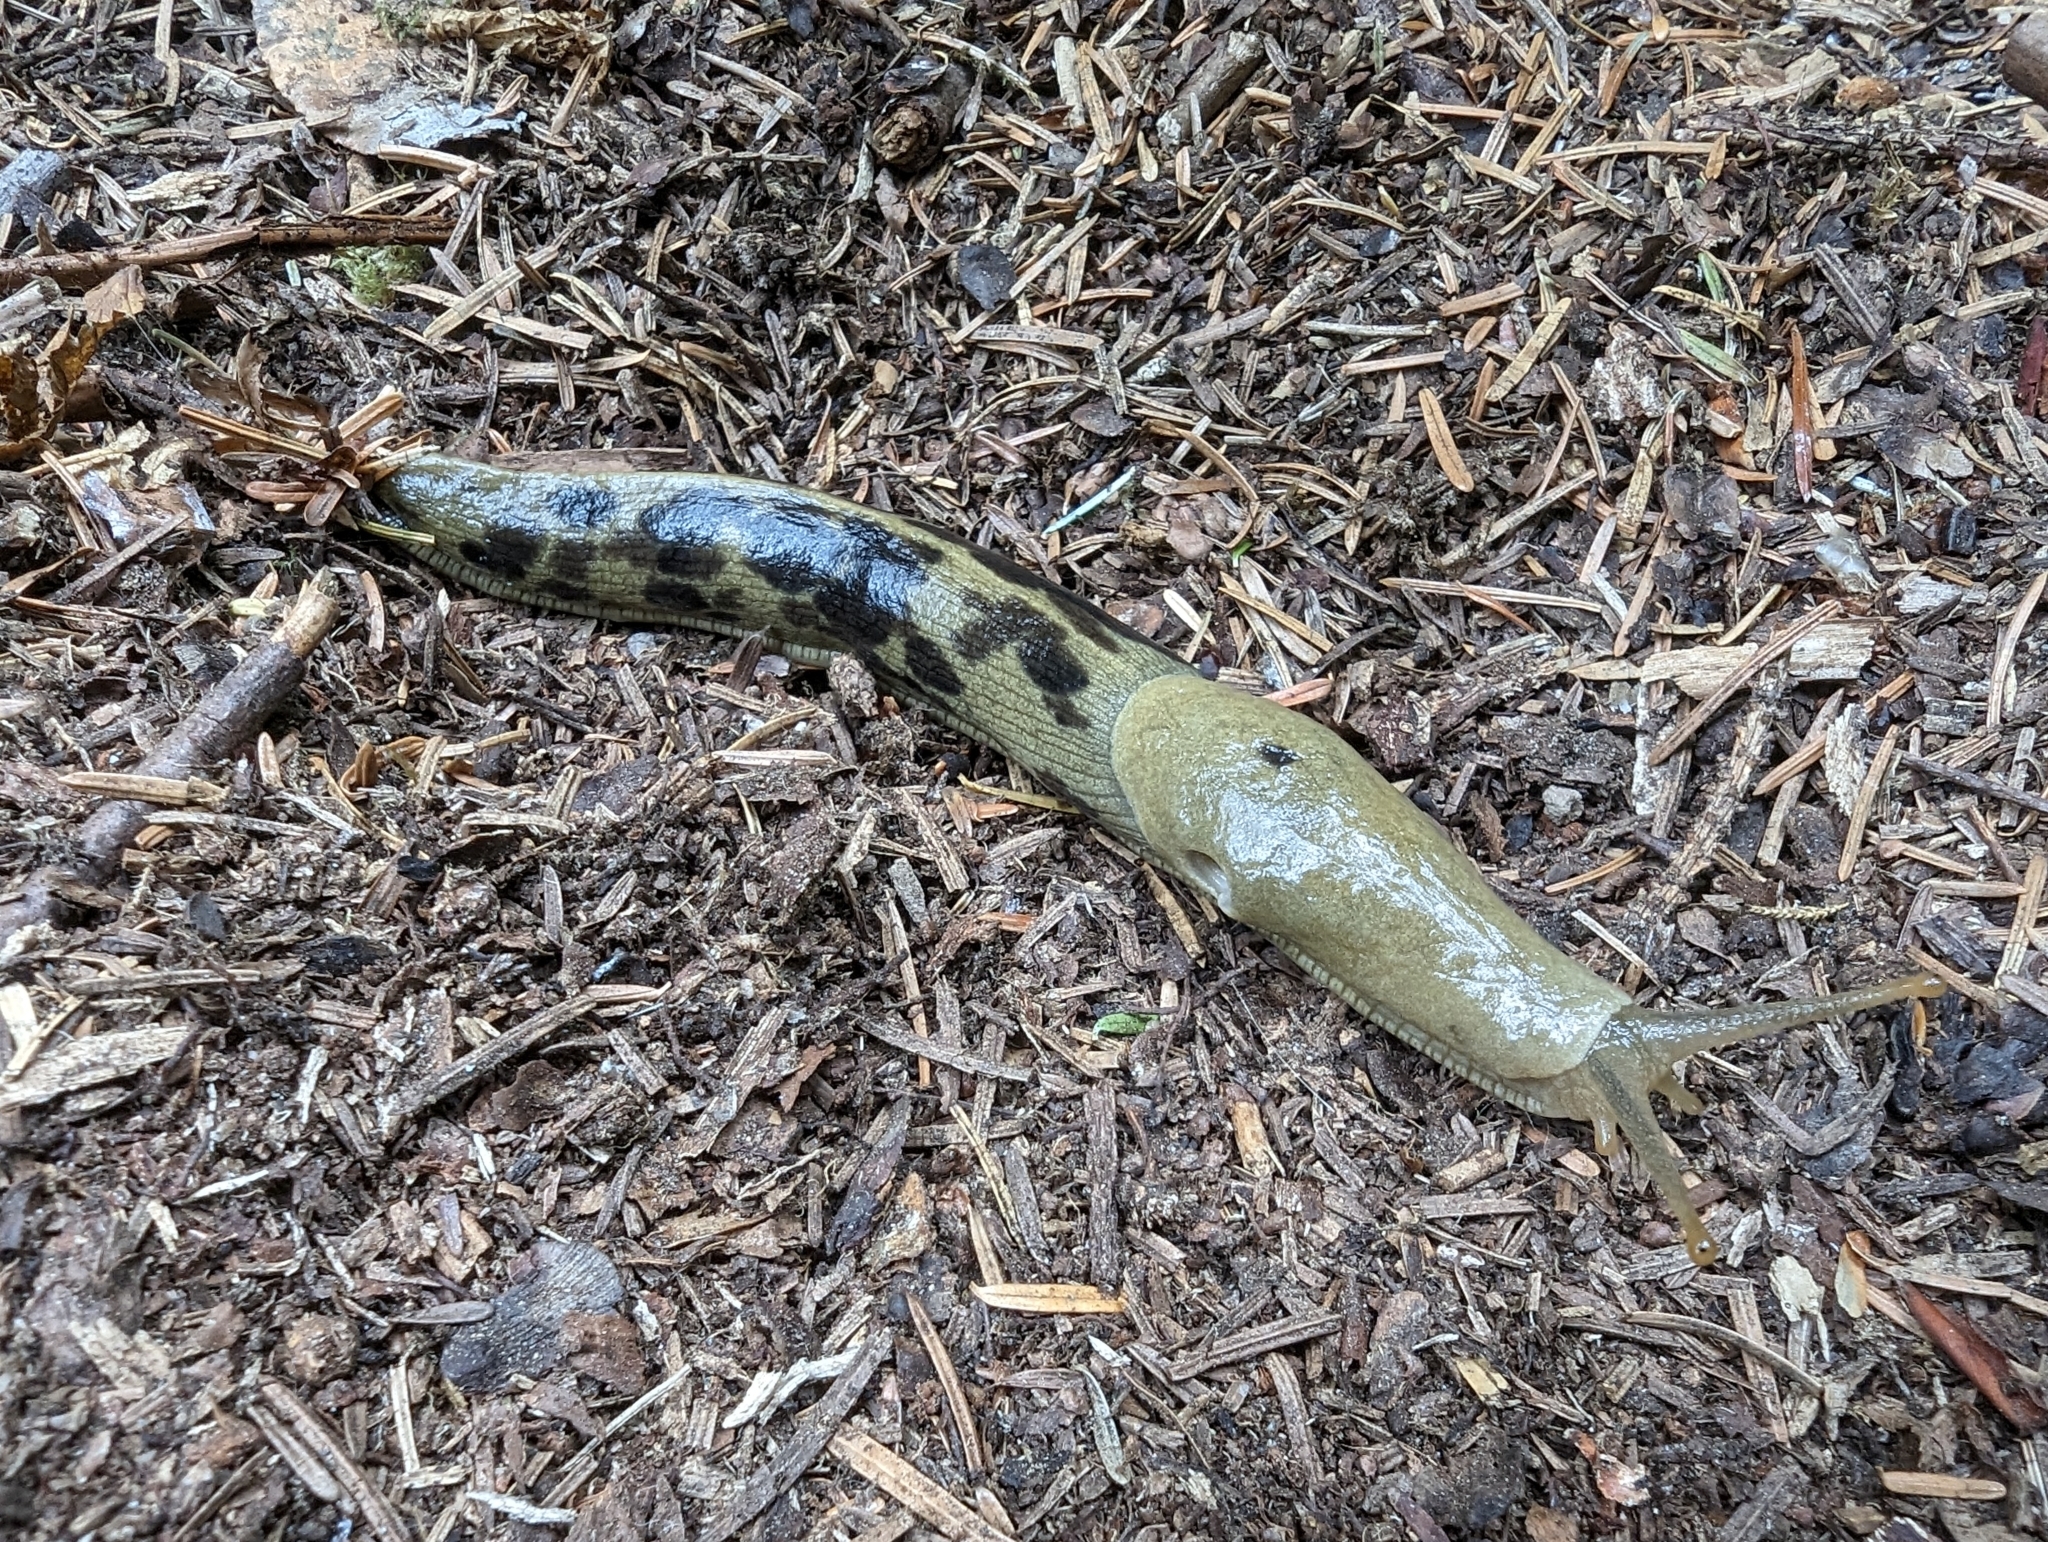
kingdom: Animalia
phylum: Mollusca
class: Gastropoda
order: Stylommatophora
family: Ariolimacidae
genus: Ariolimax
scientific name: Ariolimax columbianus
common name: Pacific banana slug
